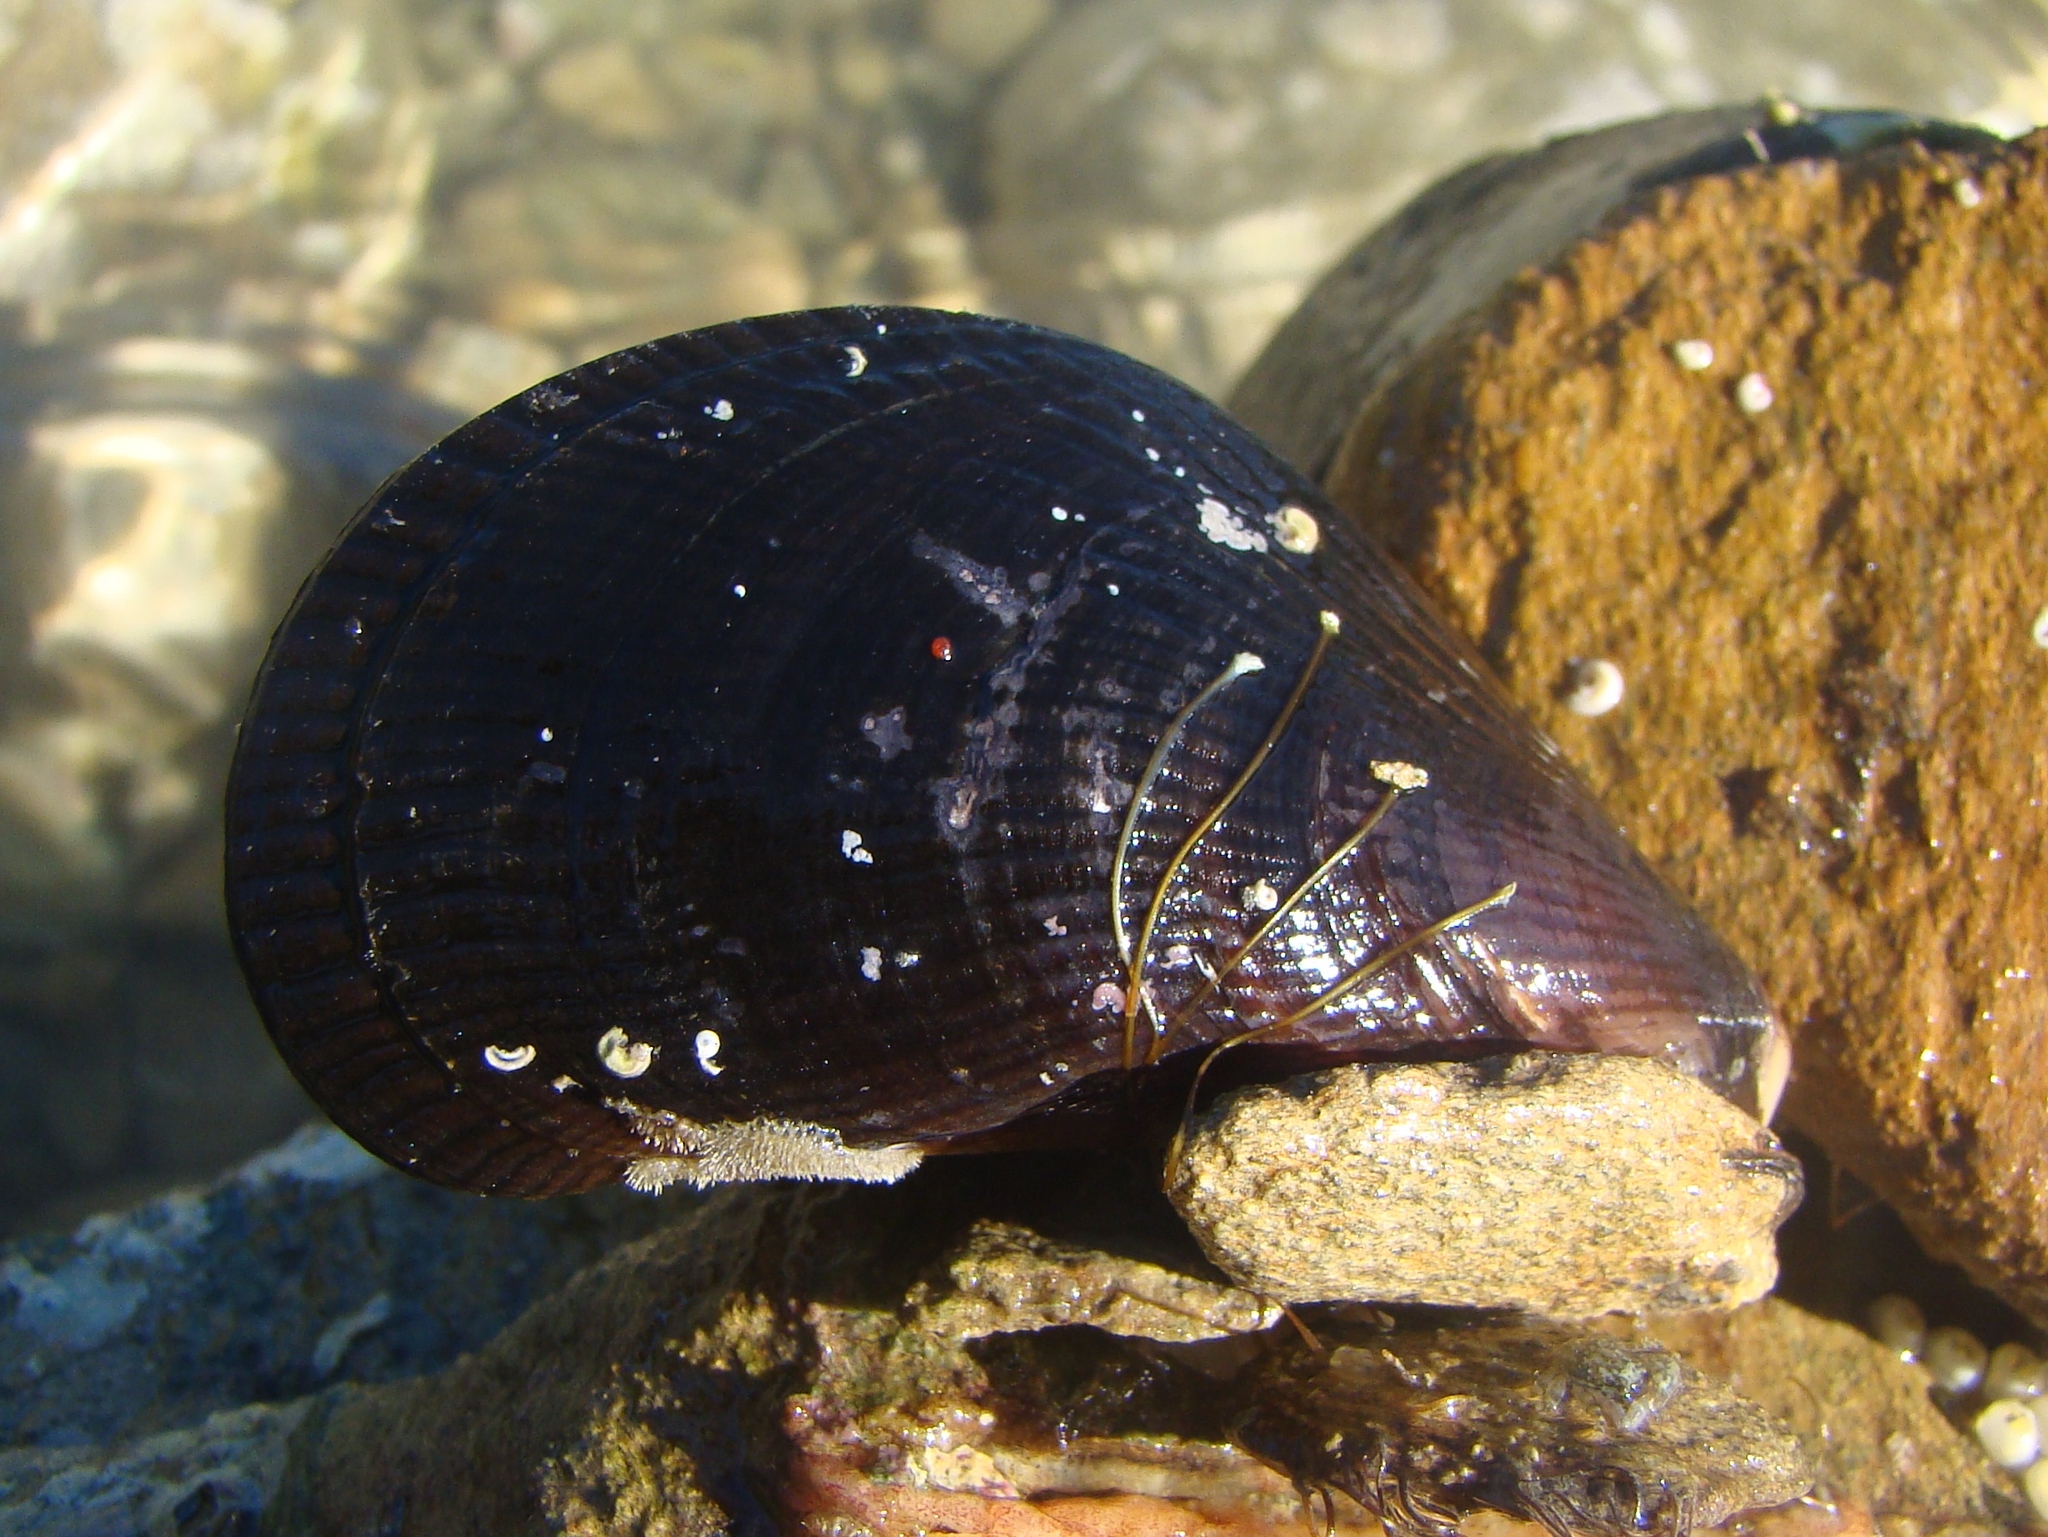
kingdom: Animalia
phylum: Mollusca
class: Bivalvia
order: Mytilida
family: Mytilidae
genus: Aulacomya
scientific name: Aulacomya maoriana
